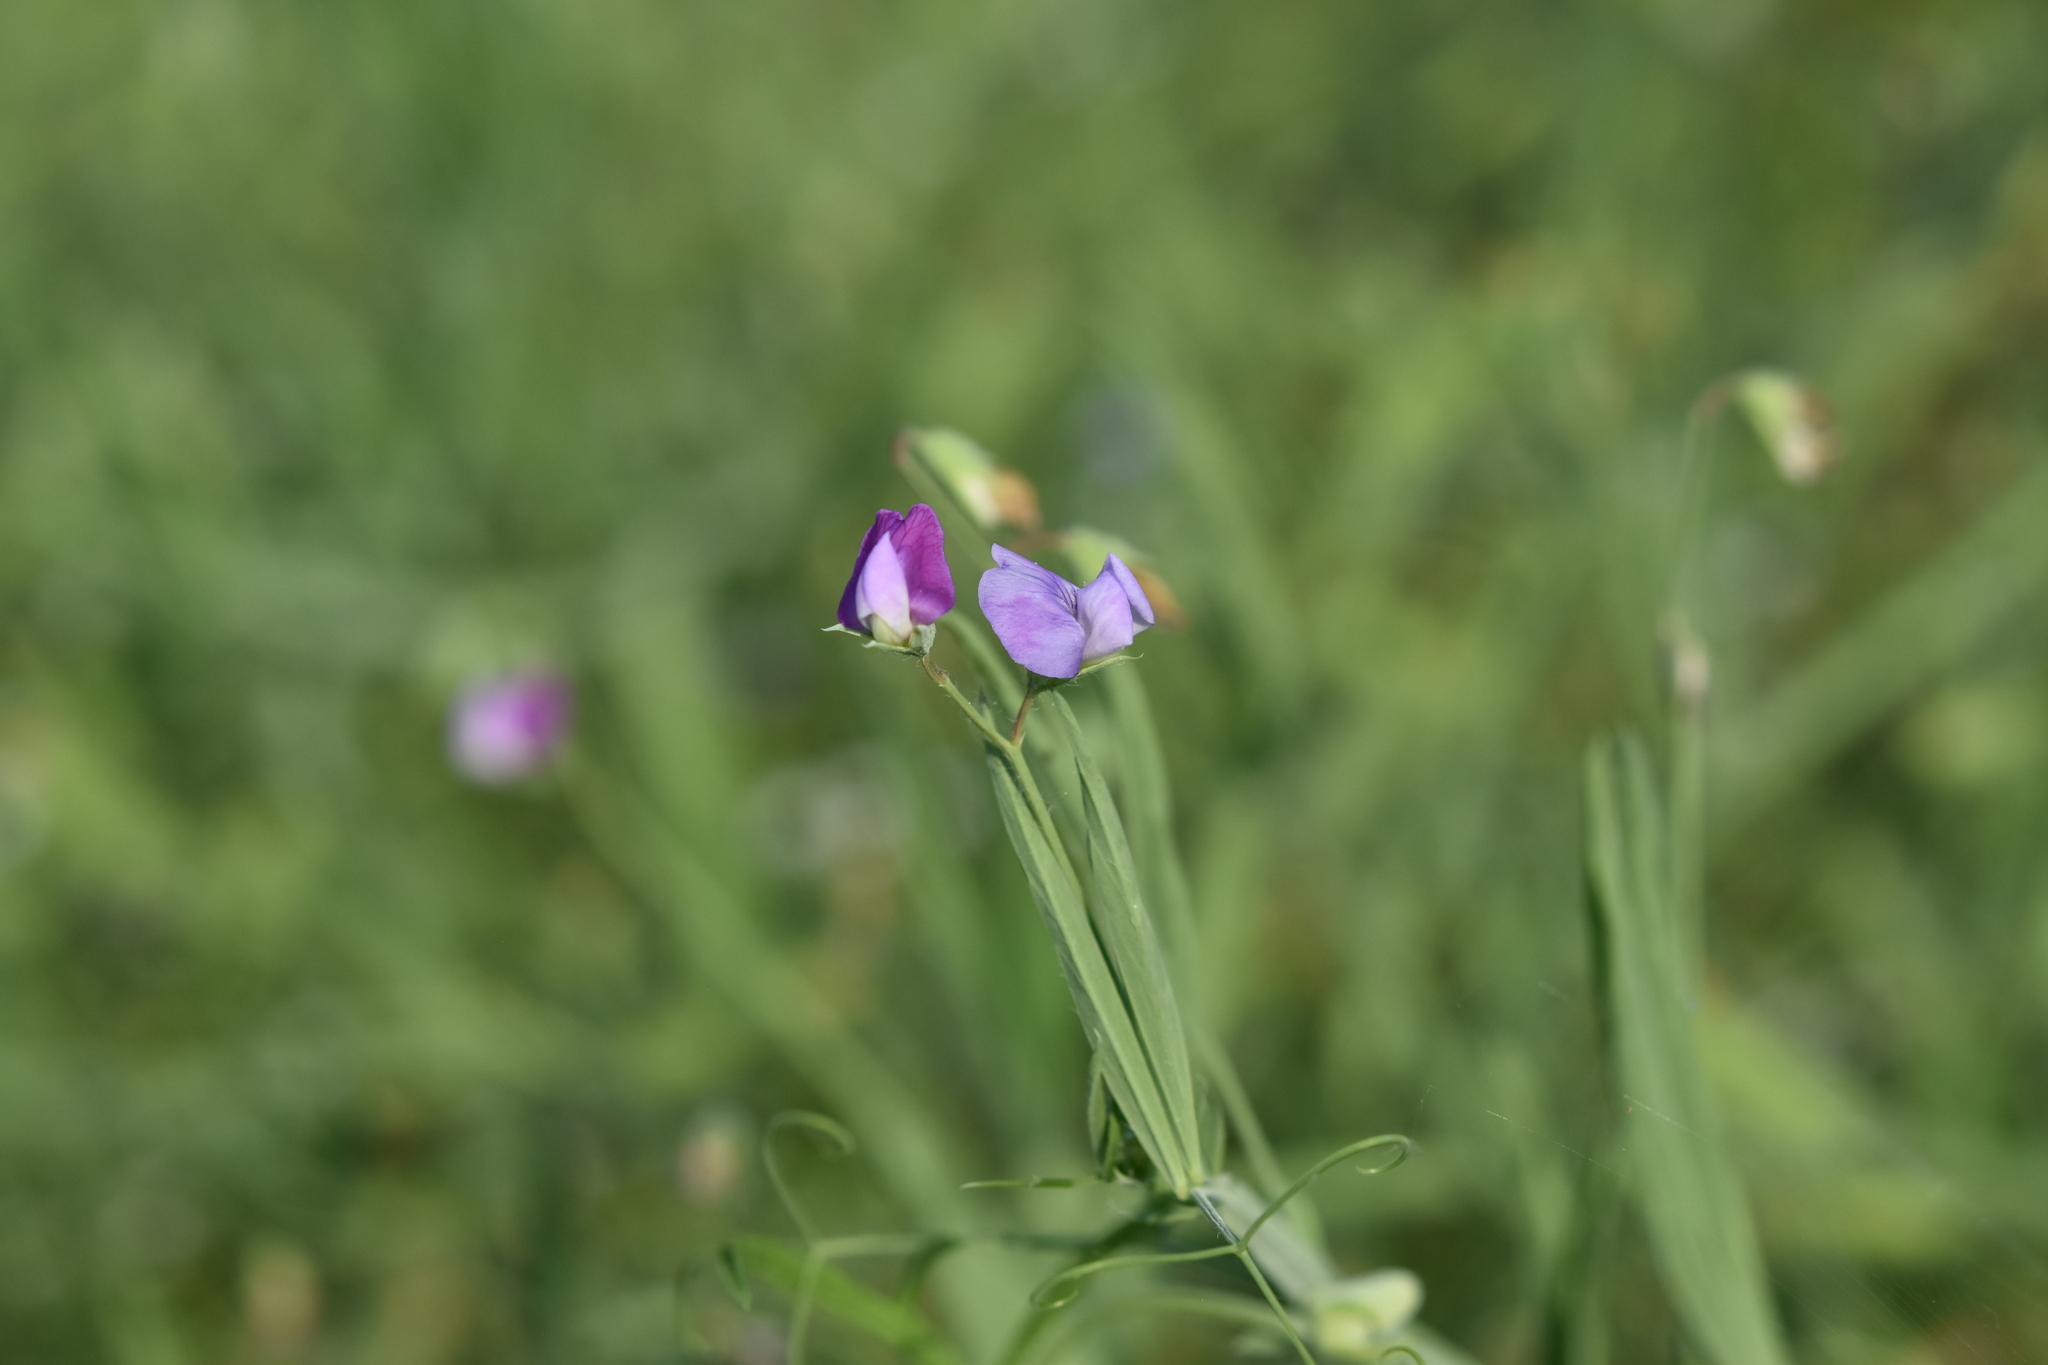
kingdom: Plantae
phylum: Tracheophyta
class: Magnoliopsida
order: Fabales
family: Fabaceae
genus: Lathyrus
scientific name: Lathyrus hirsutus
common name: Hairy vetchling
